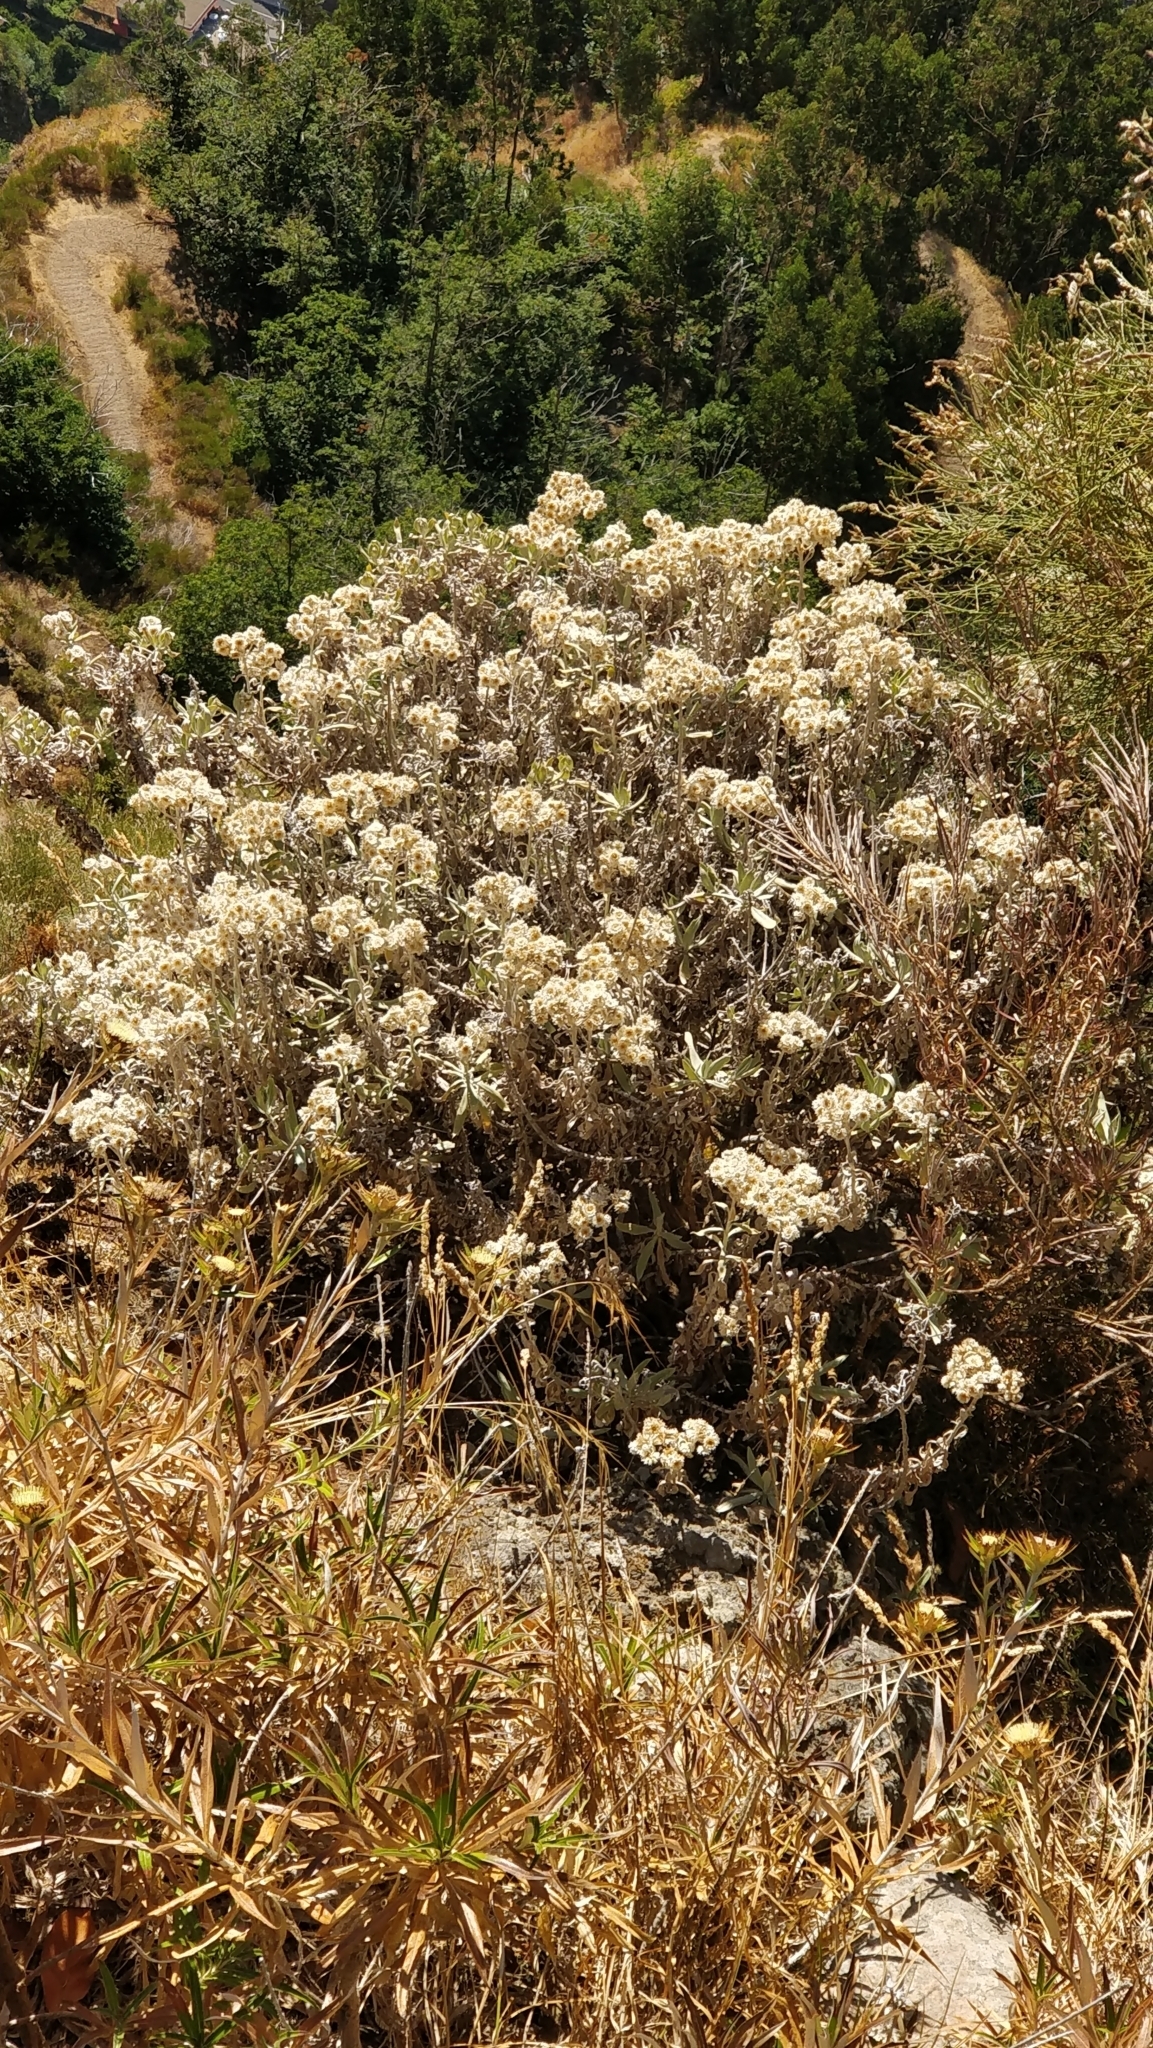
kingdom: Plantae
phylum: Tracheophyta
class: Magnoliopsida
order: Asterales
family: Asteraceae
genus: Helichrysum
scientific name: Helichrysum melaleucum
